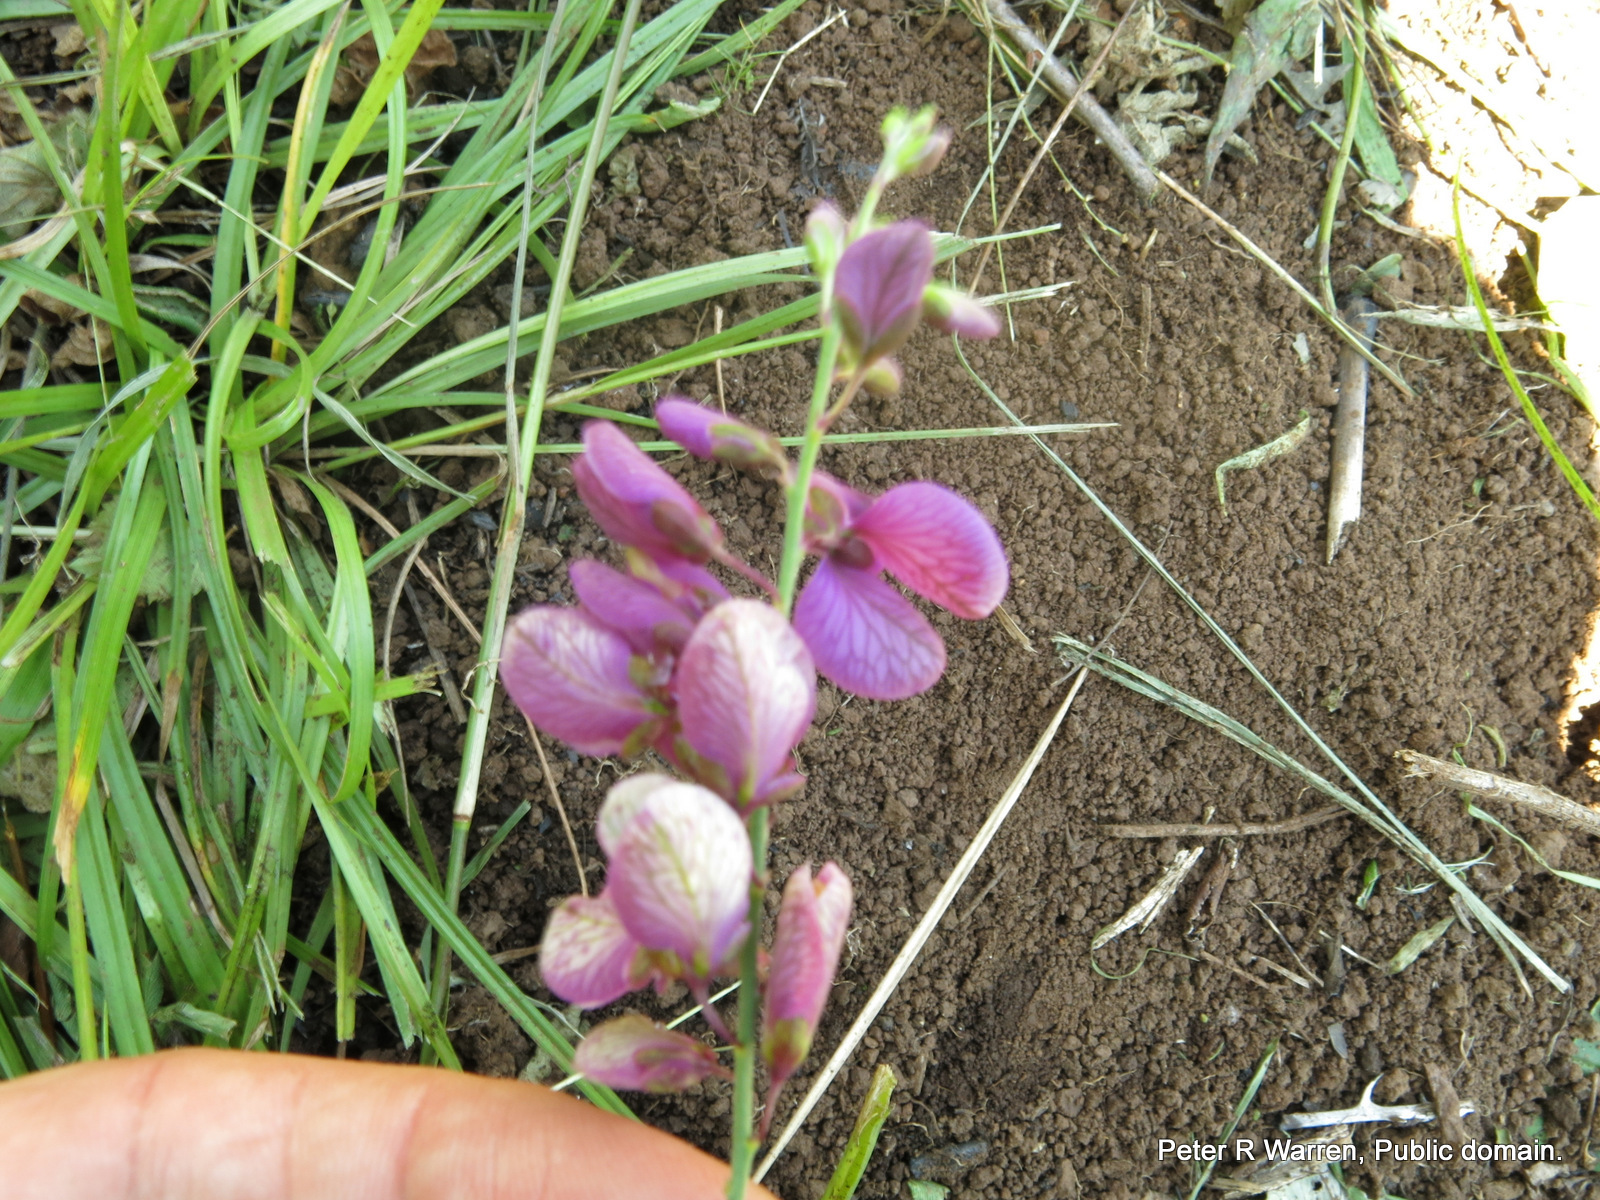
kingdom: Plantae
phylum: Tracheophyta
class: Magnoliopsida
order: Fabales
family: Polygalaceae
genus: Polygala
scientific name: Polygala virgata
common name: Milkwort
